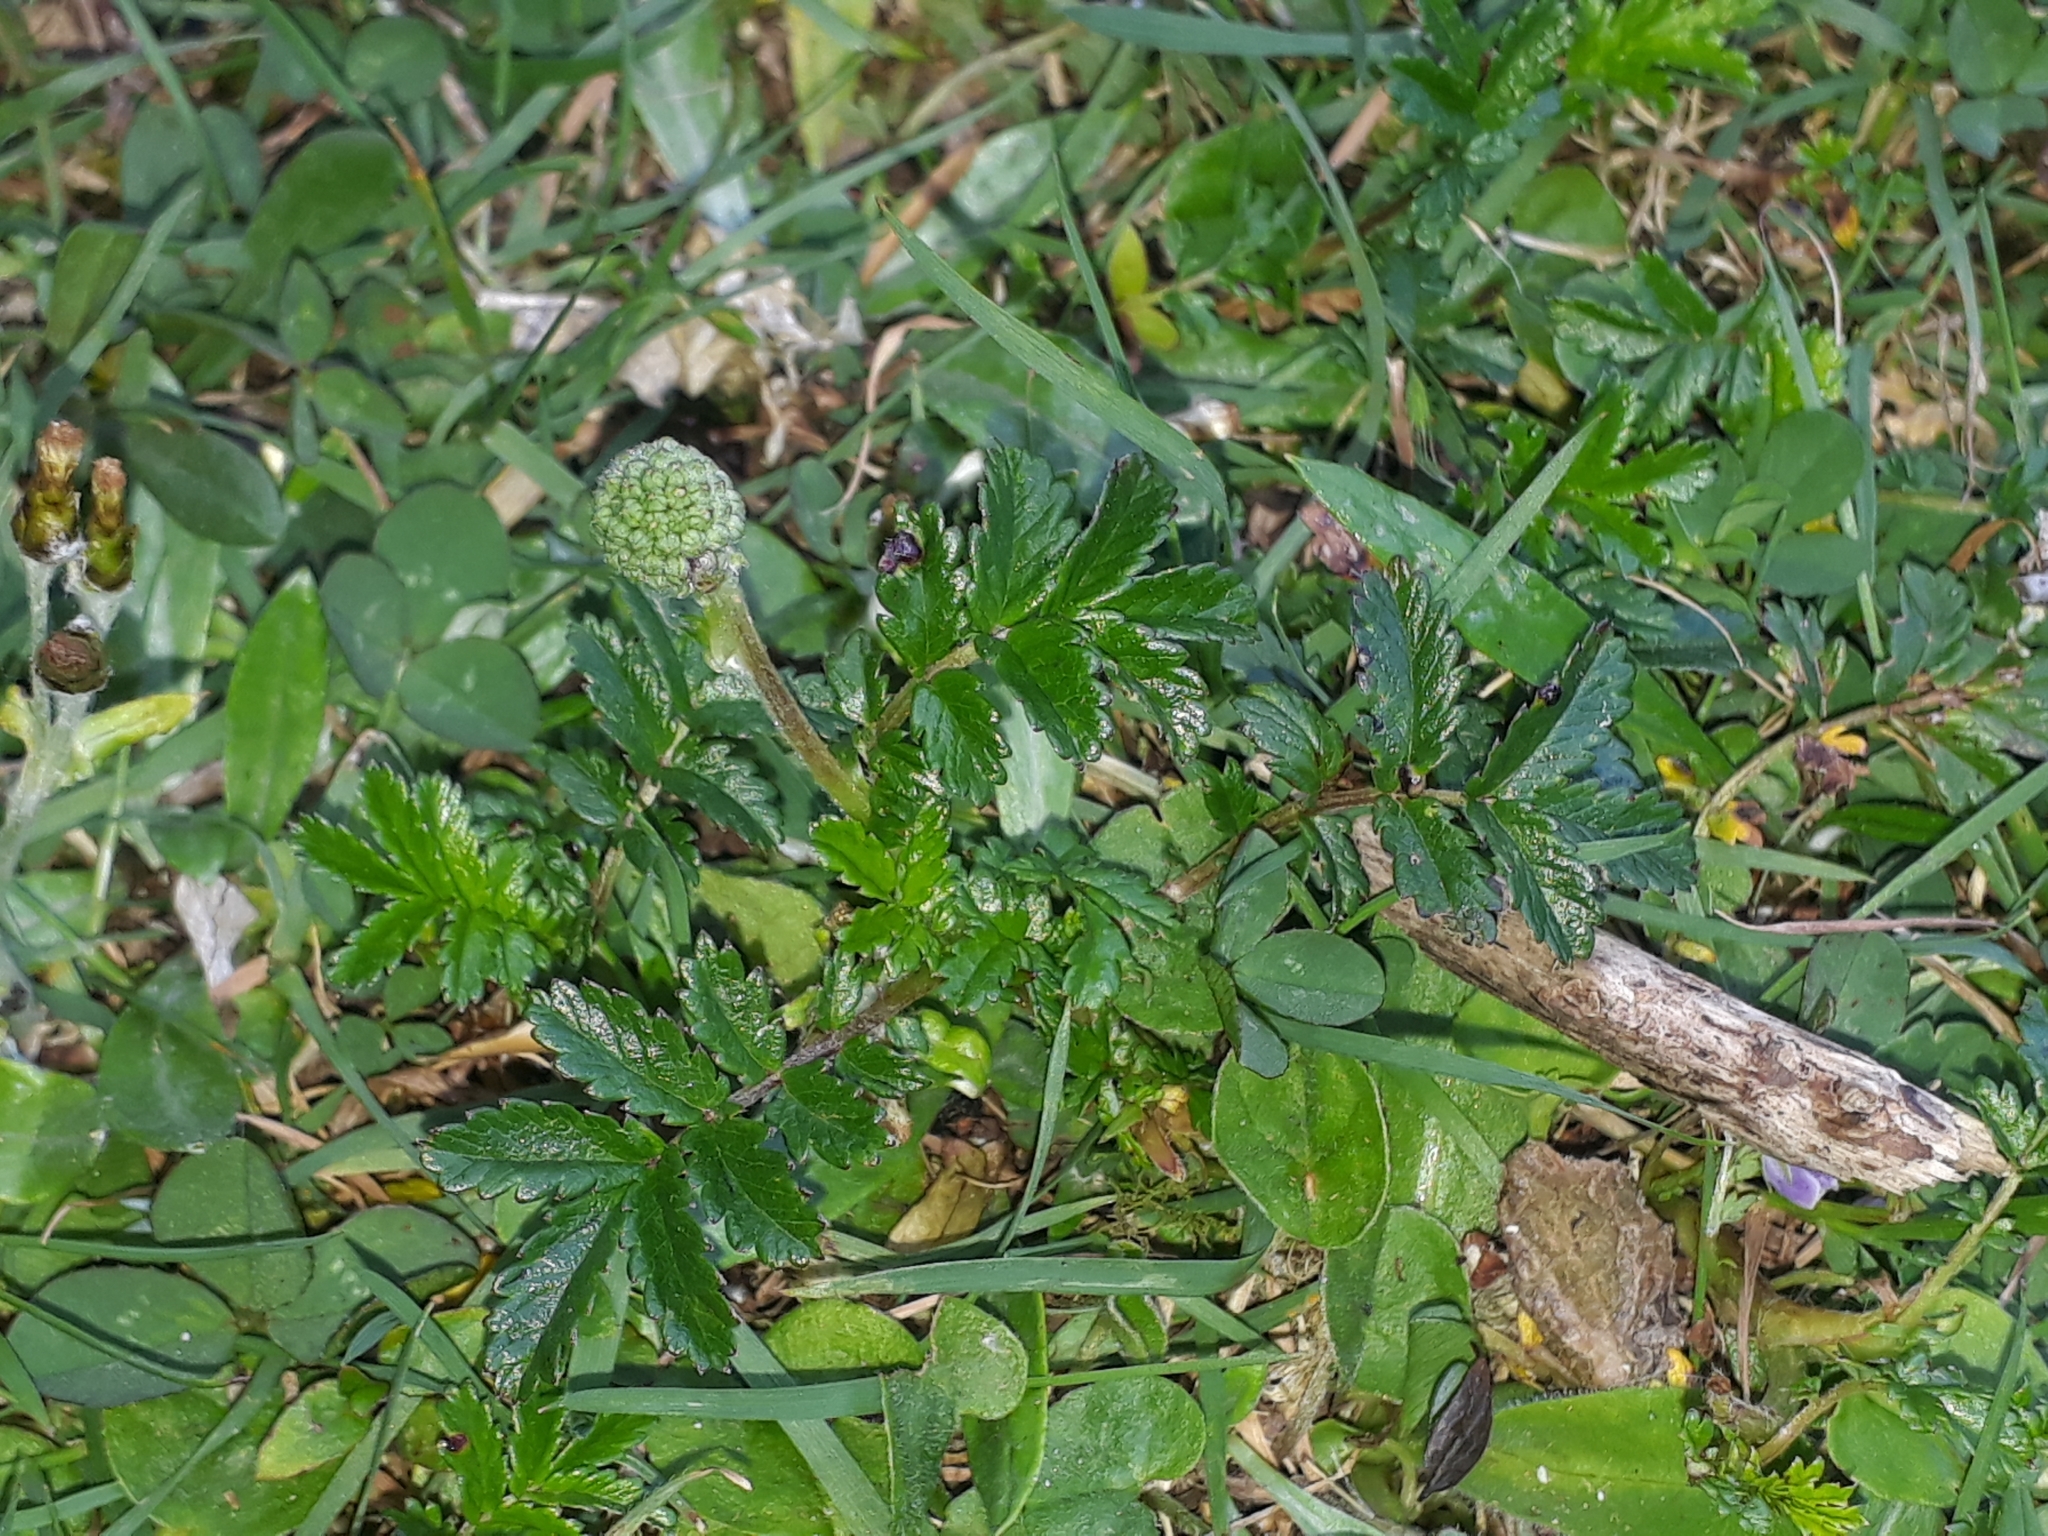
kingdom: Plantae
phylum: Tracheophyta
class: Magnoliopsida
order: Rosales
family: Rosaceae
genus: Acaena
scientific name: Acaena novae-zelandiae
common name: Pirri-pirri-bur
